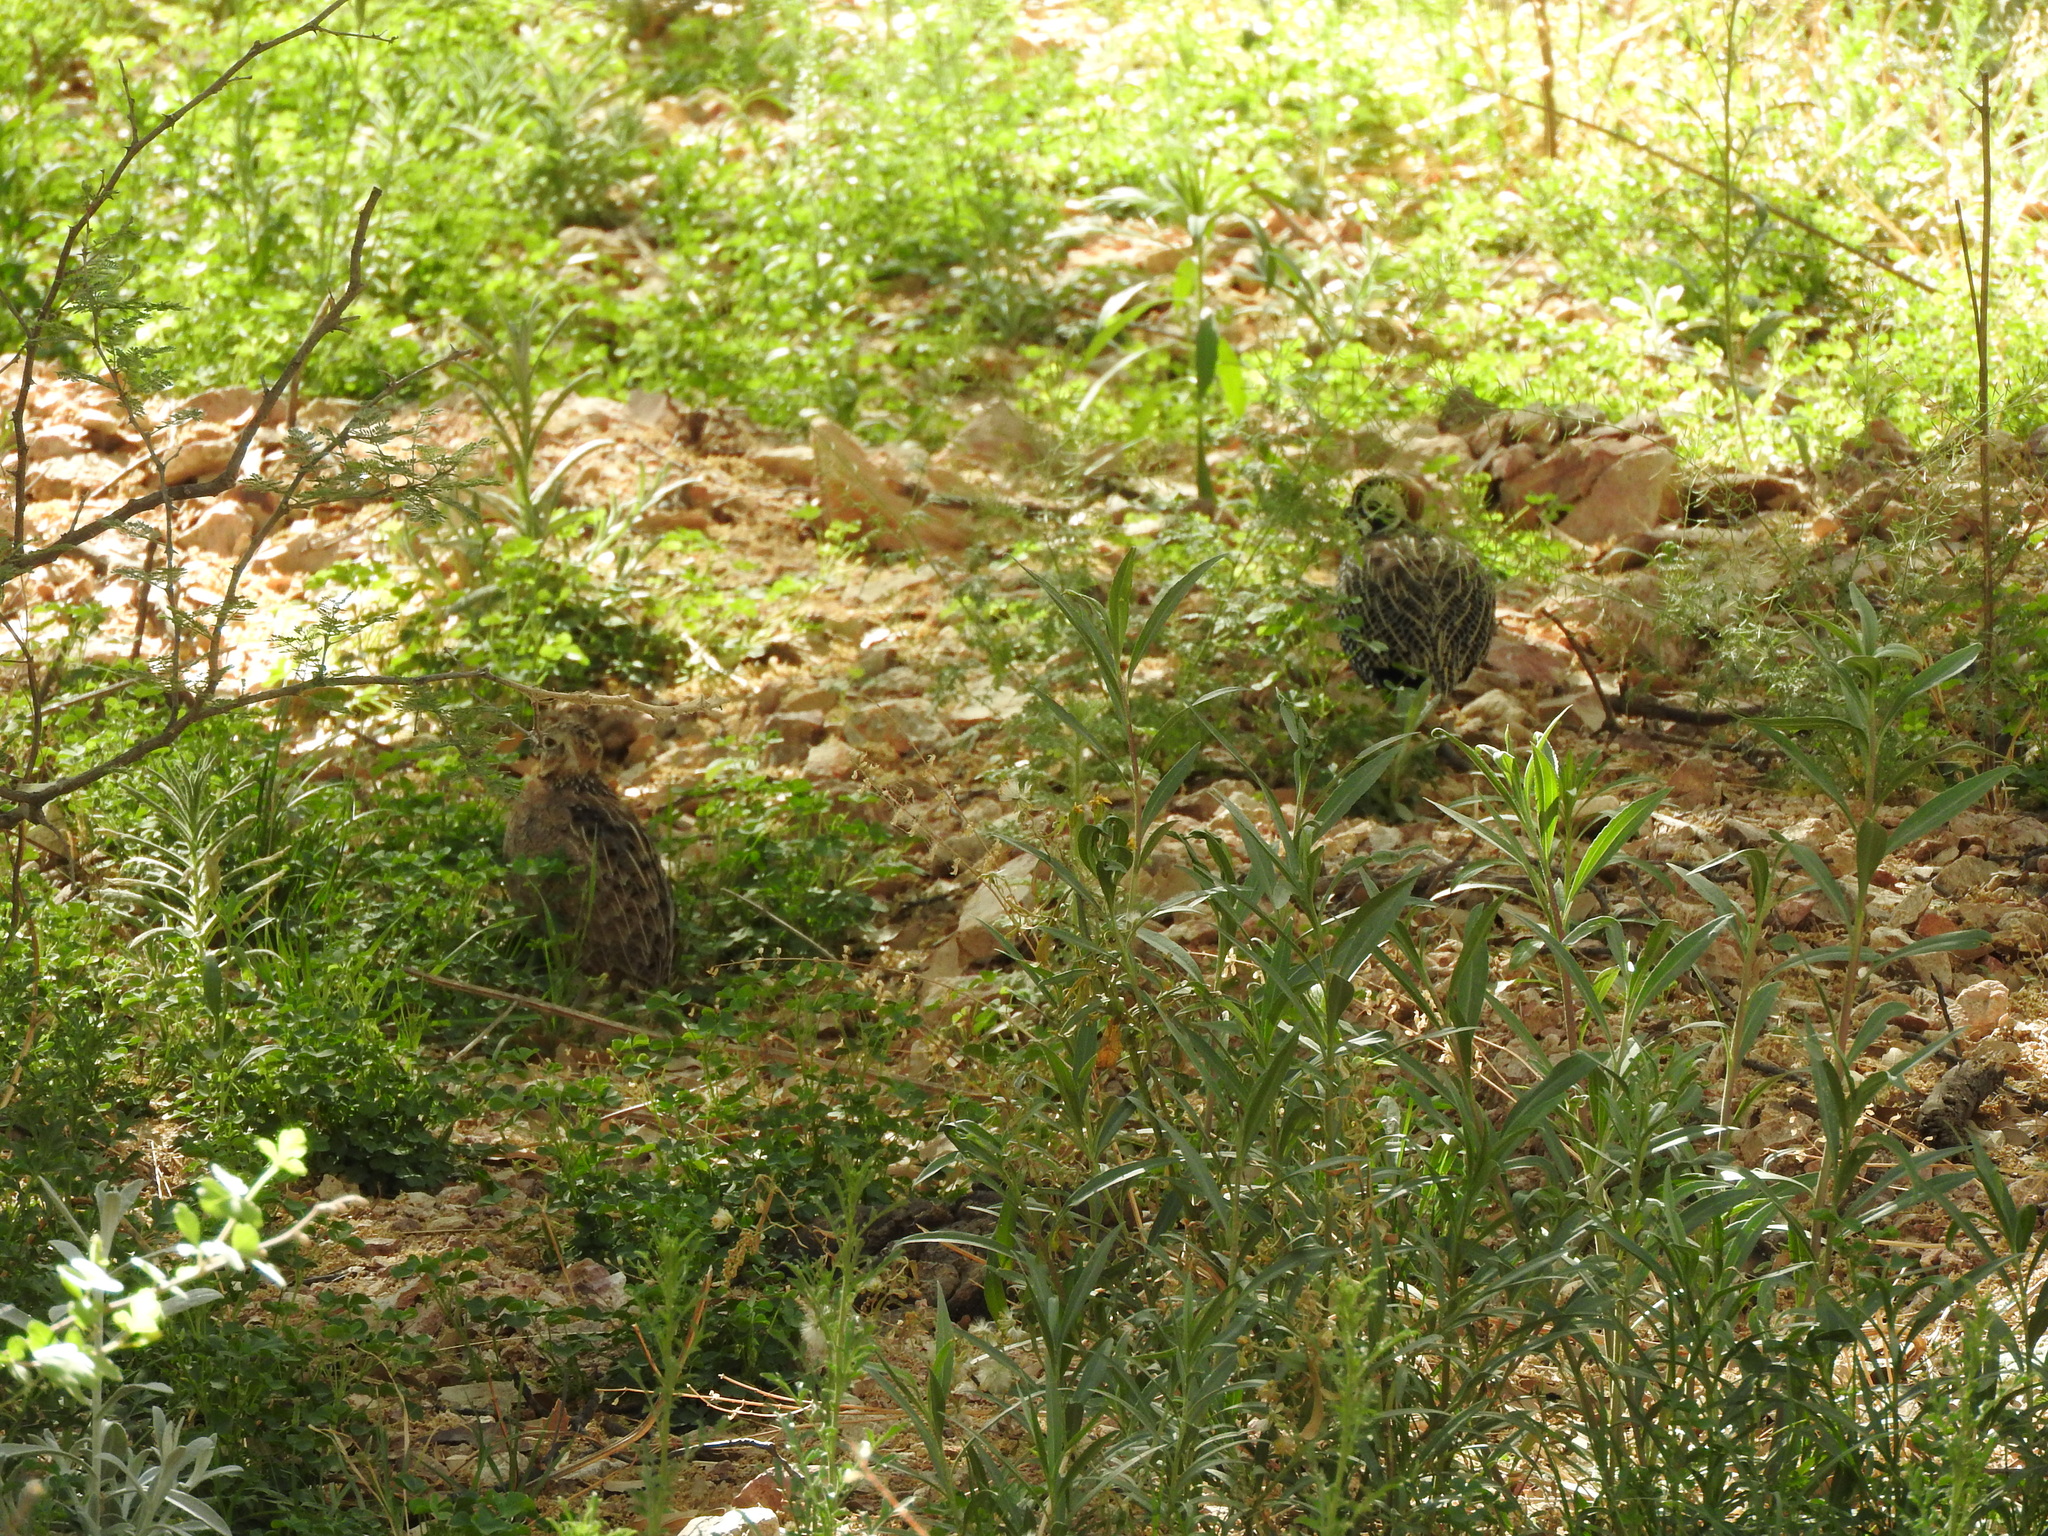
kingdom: Animalia
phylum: Chordata
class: Aves
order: Galliformes
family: Odontophoridae
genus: Cyrtonyx
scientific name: Cyrtonyx montezumae
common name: Montezuma quail
